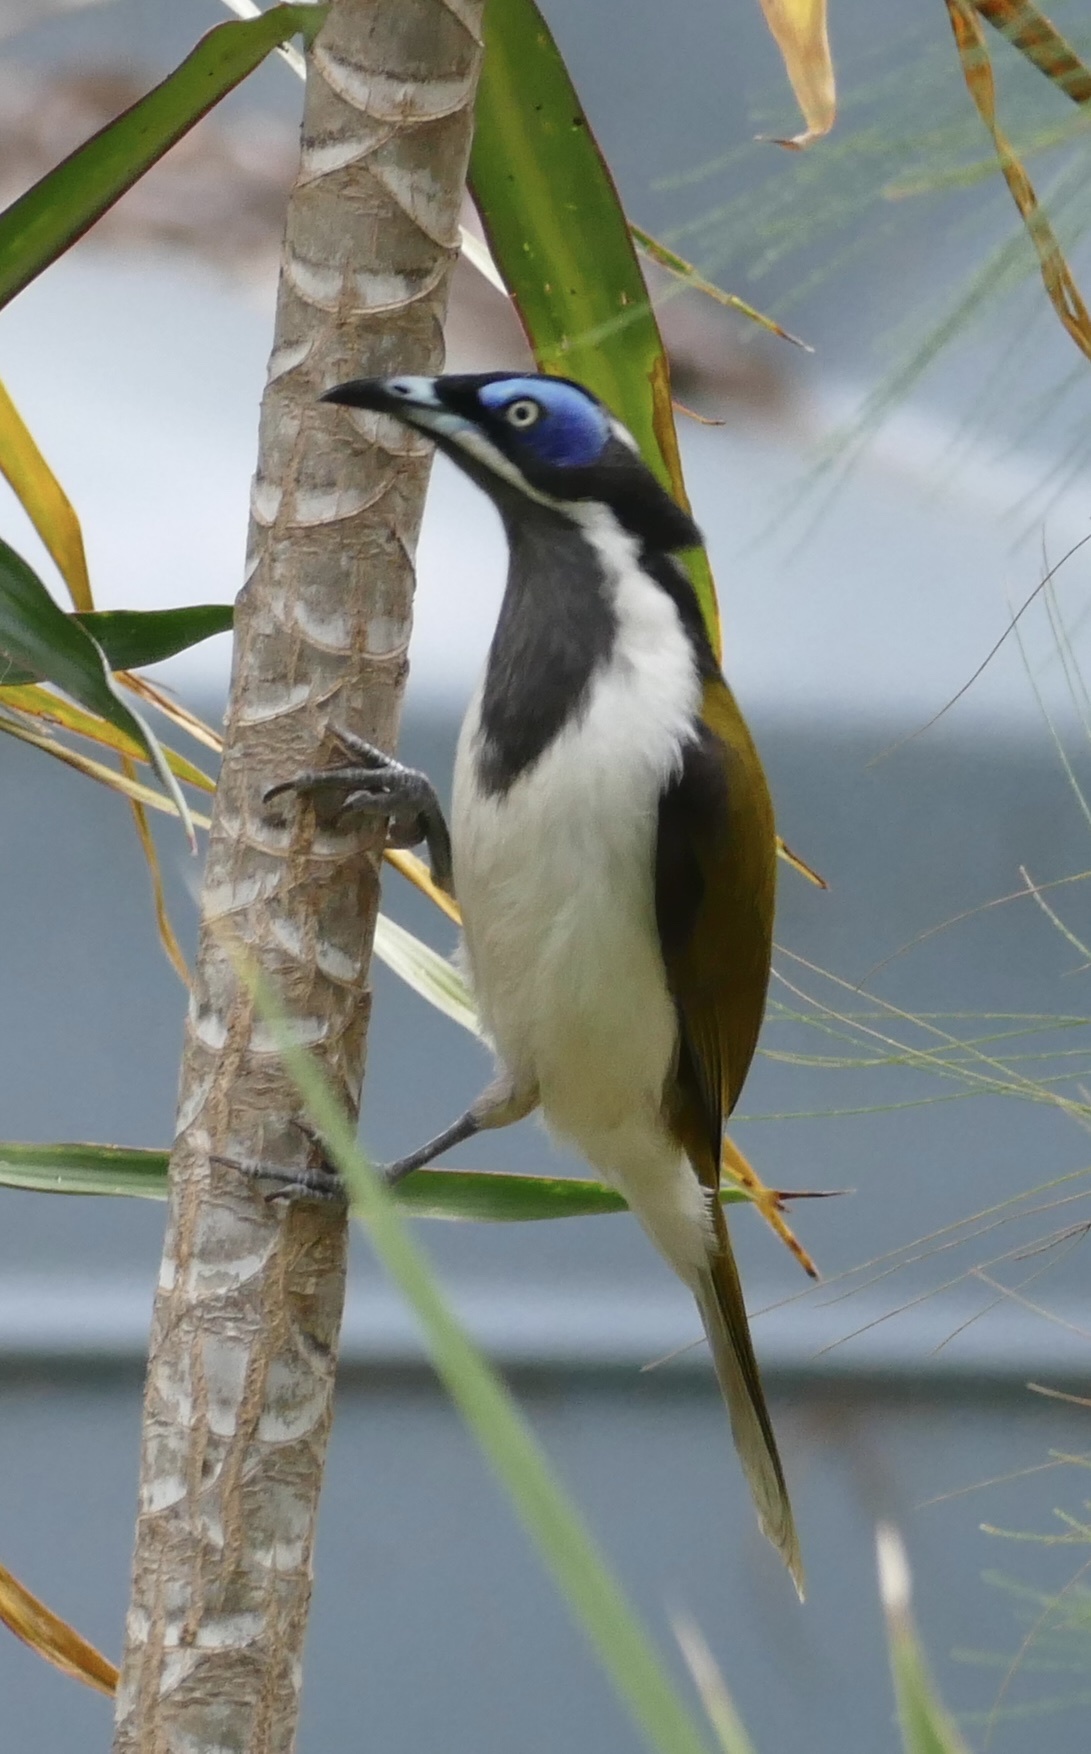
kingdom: Animalia
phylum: Chordata
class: Aves
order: Passeriformes
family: Meliphagidae
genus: Entomyzon
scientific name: Entomyzon cyanotis
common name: Blue-faced honeyeater
